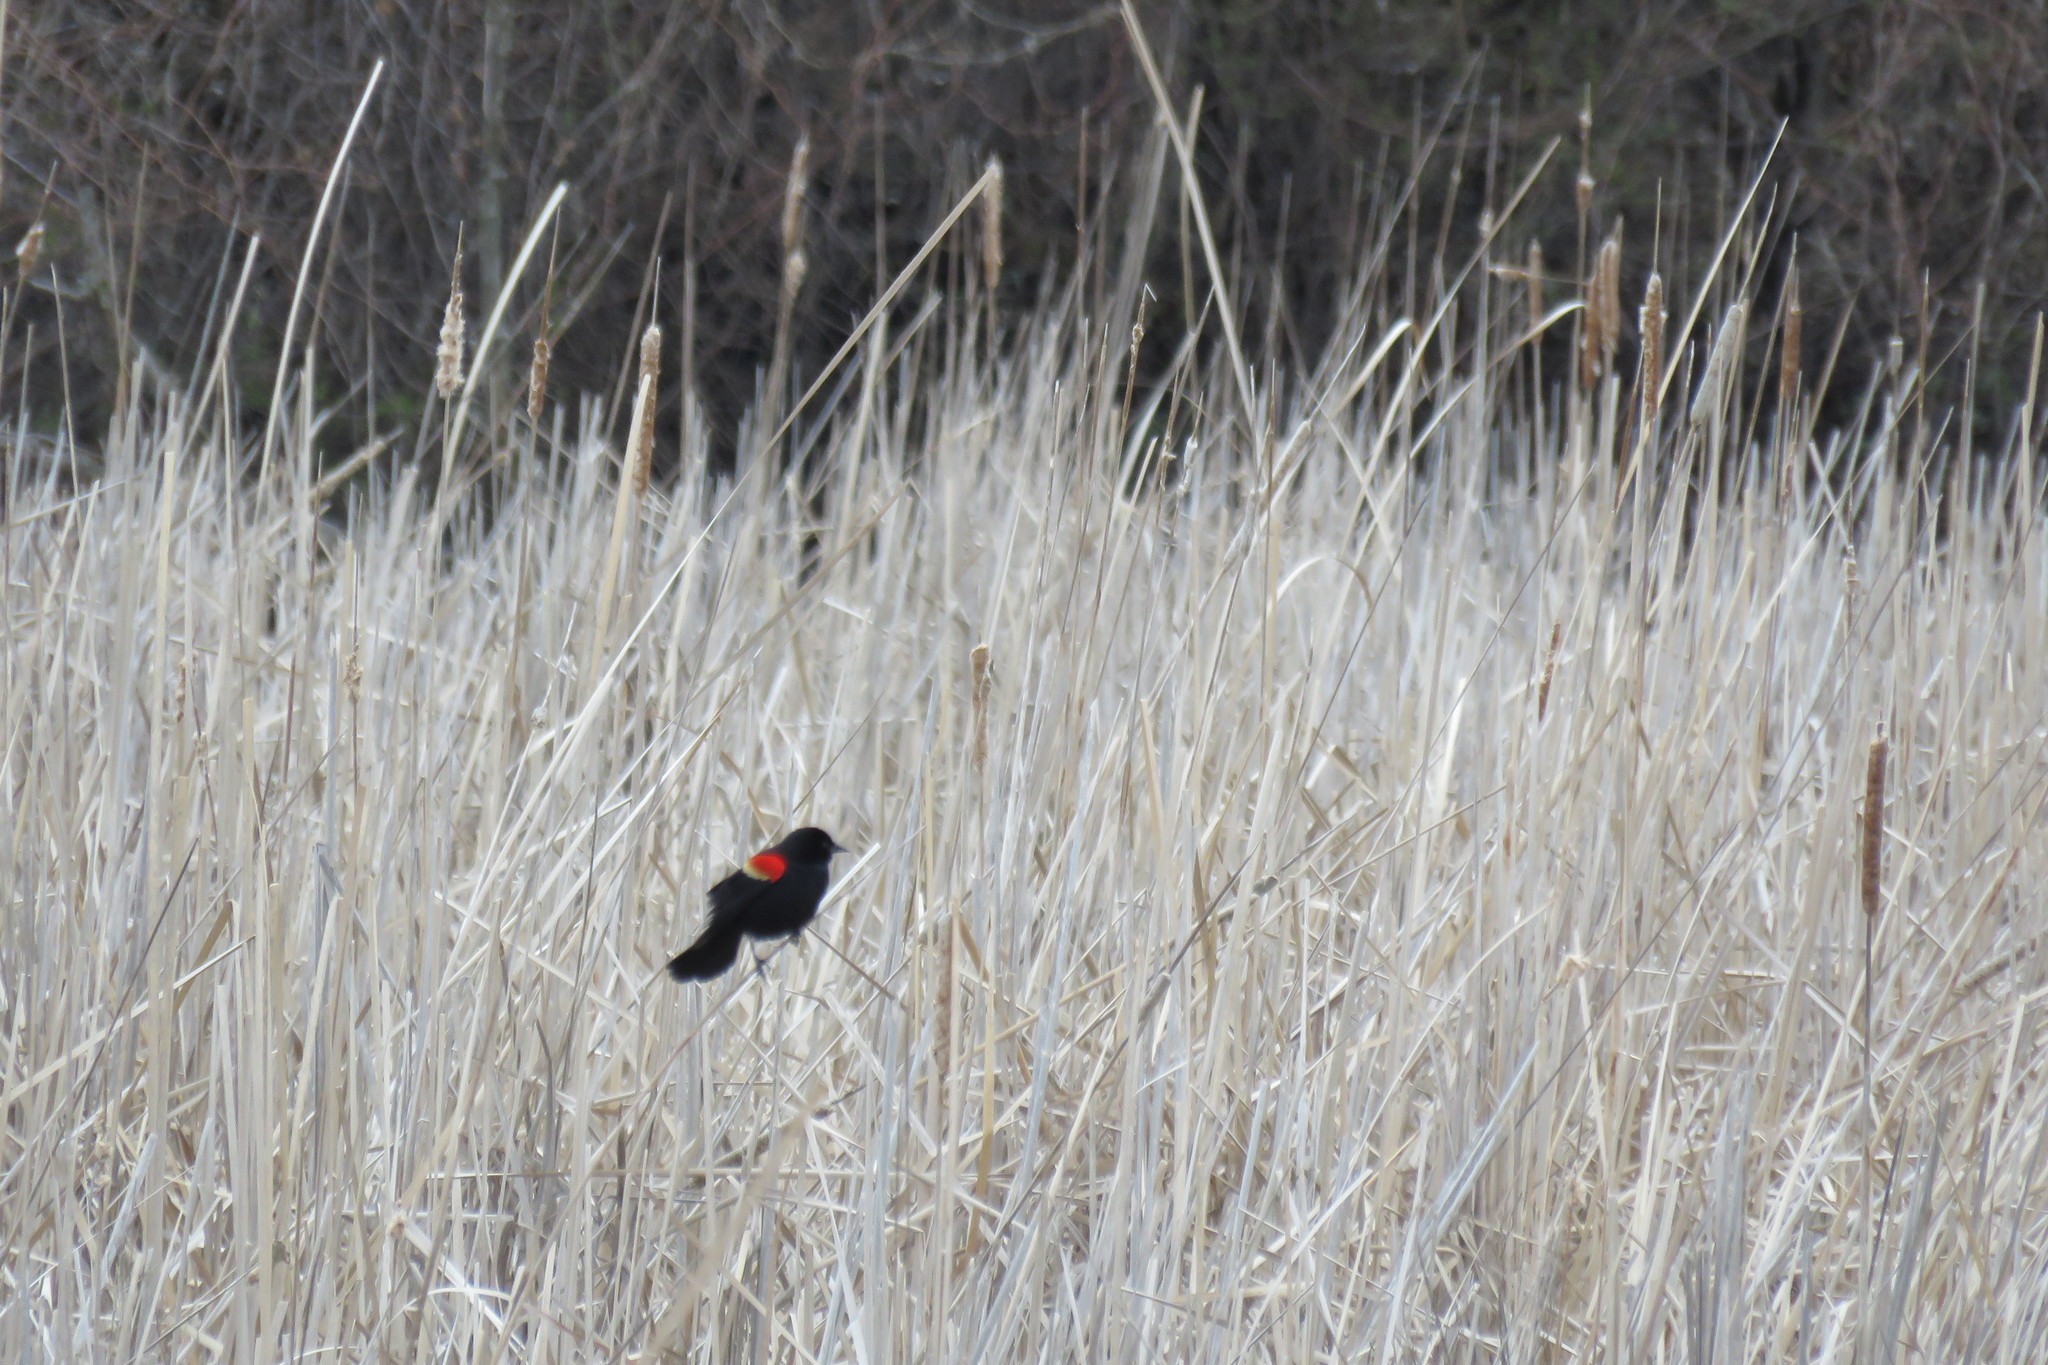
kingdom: Animalia
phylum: Chordata
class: Aves
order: Passeriformes
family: Icteridae
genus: Agelaius
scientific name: Agelaius phoeniceus
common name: Red-winged blackbird
